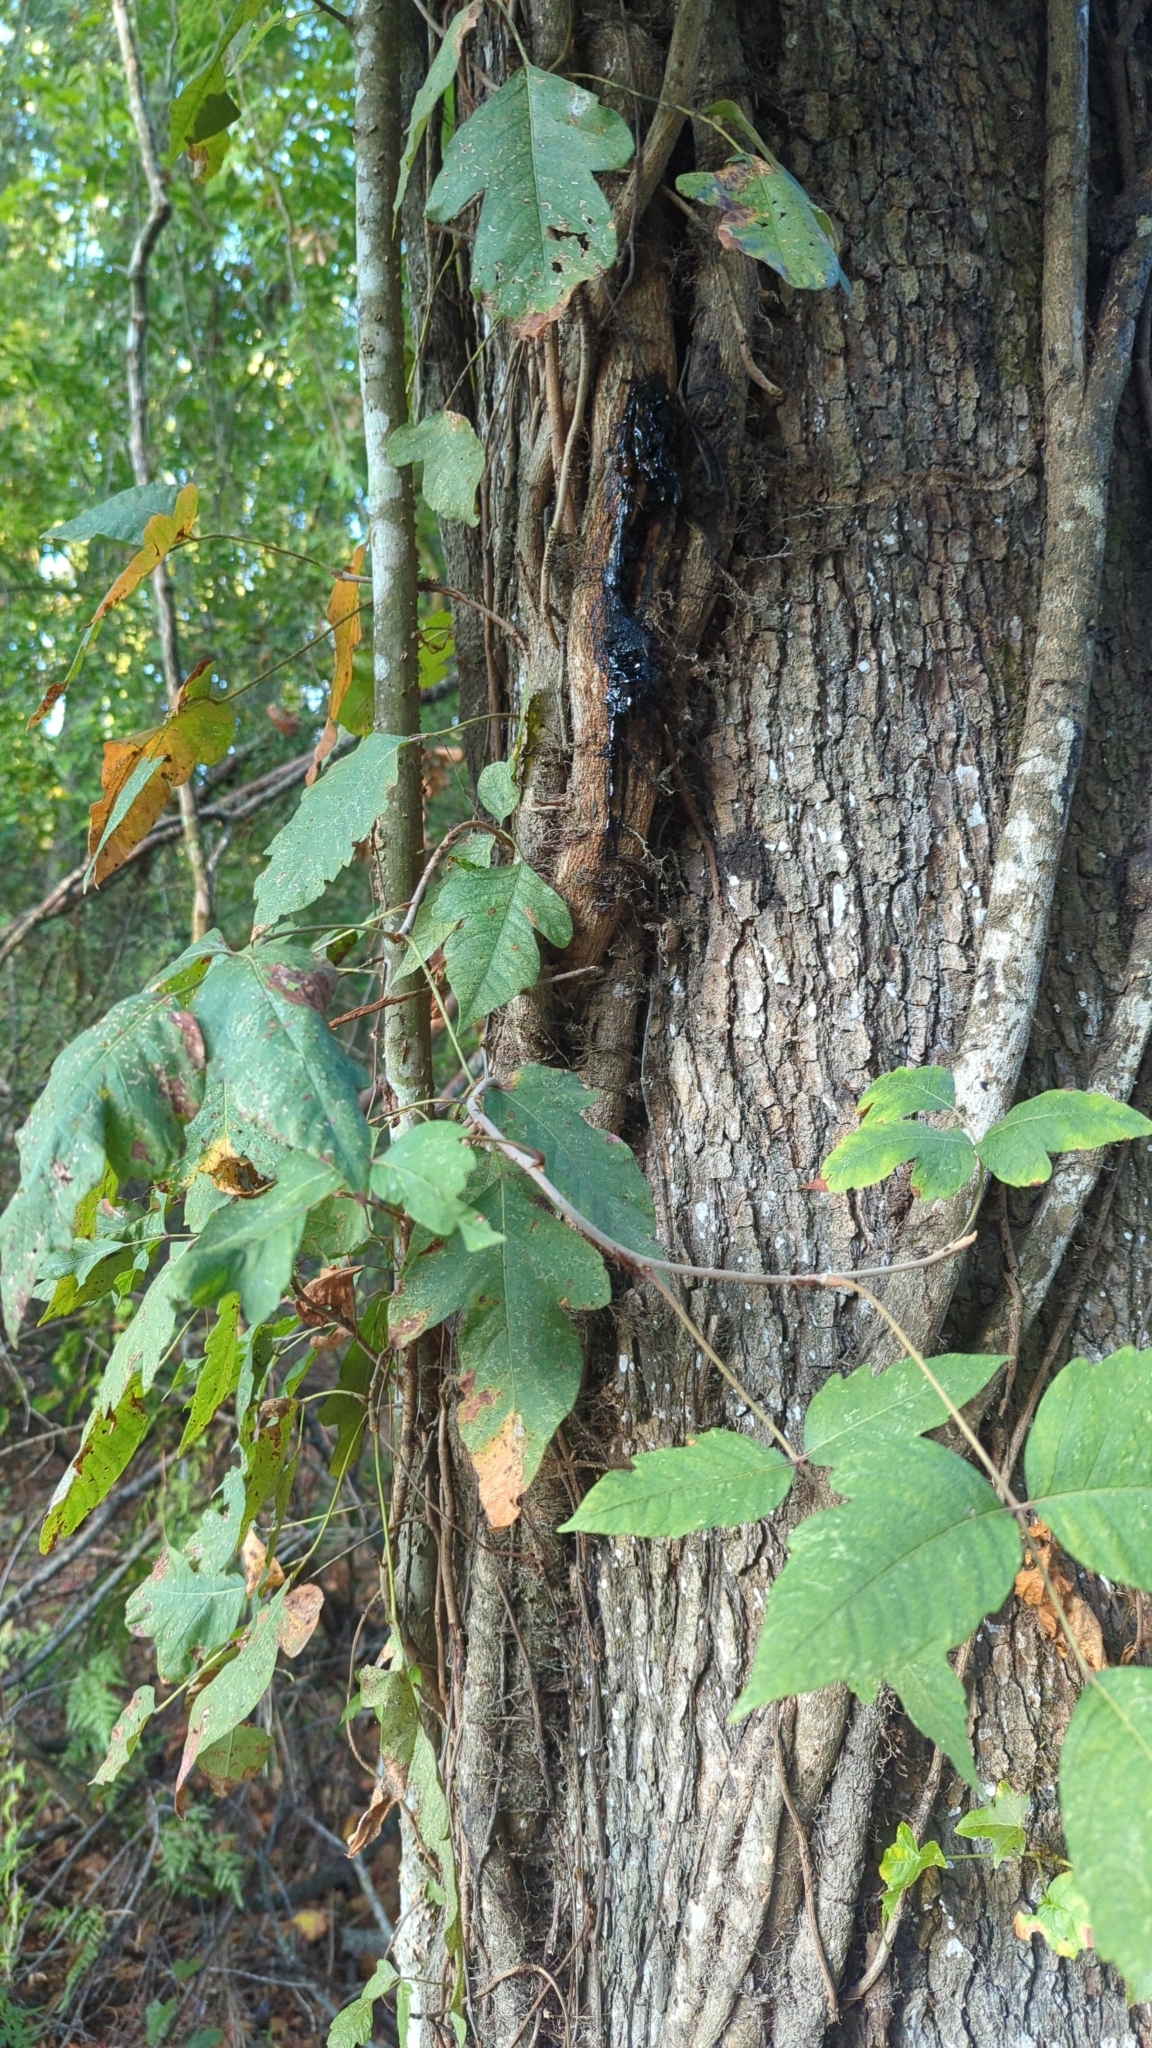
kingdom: Plantae
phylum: Tracheophyta
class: Magnoliopsida
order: Sapindales
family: Anacardiaceae
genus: Toxicodendron
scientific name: Toxicodendron radicans
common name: Poison ivy
